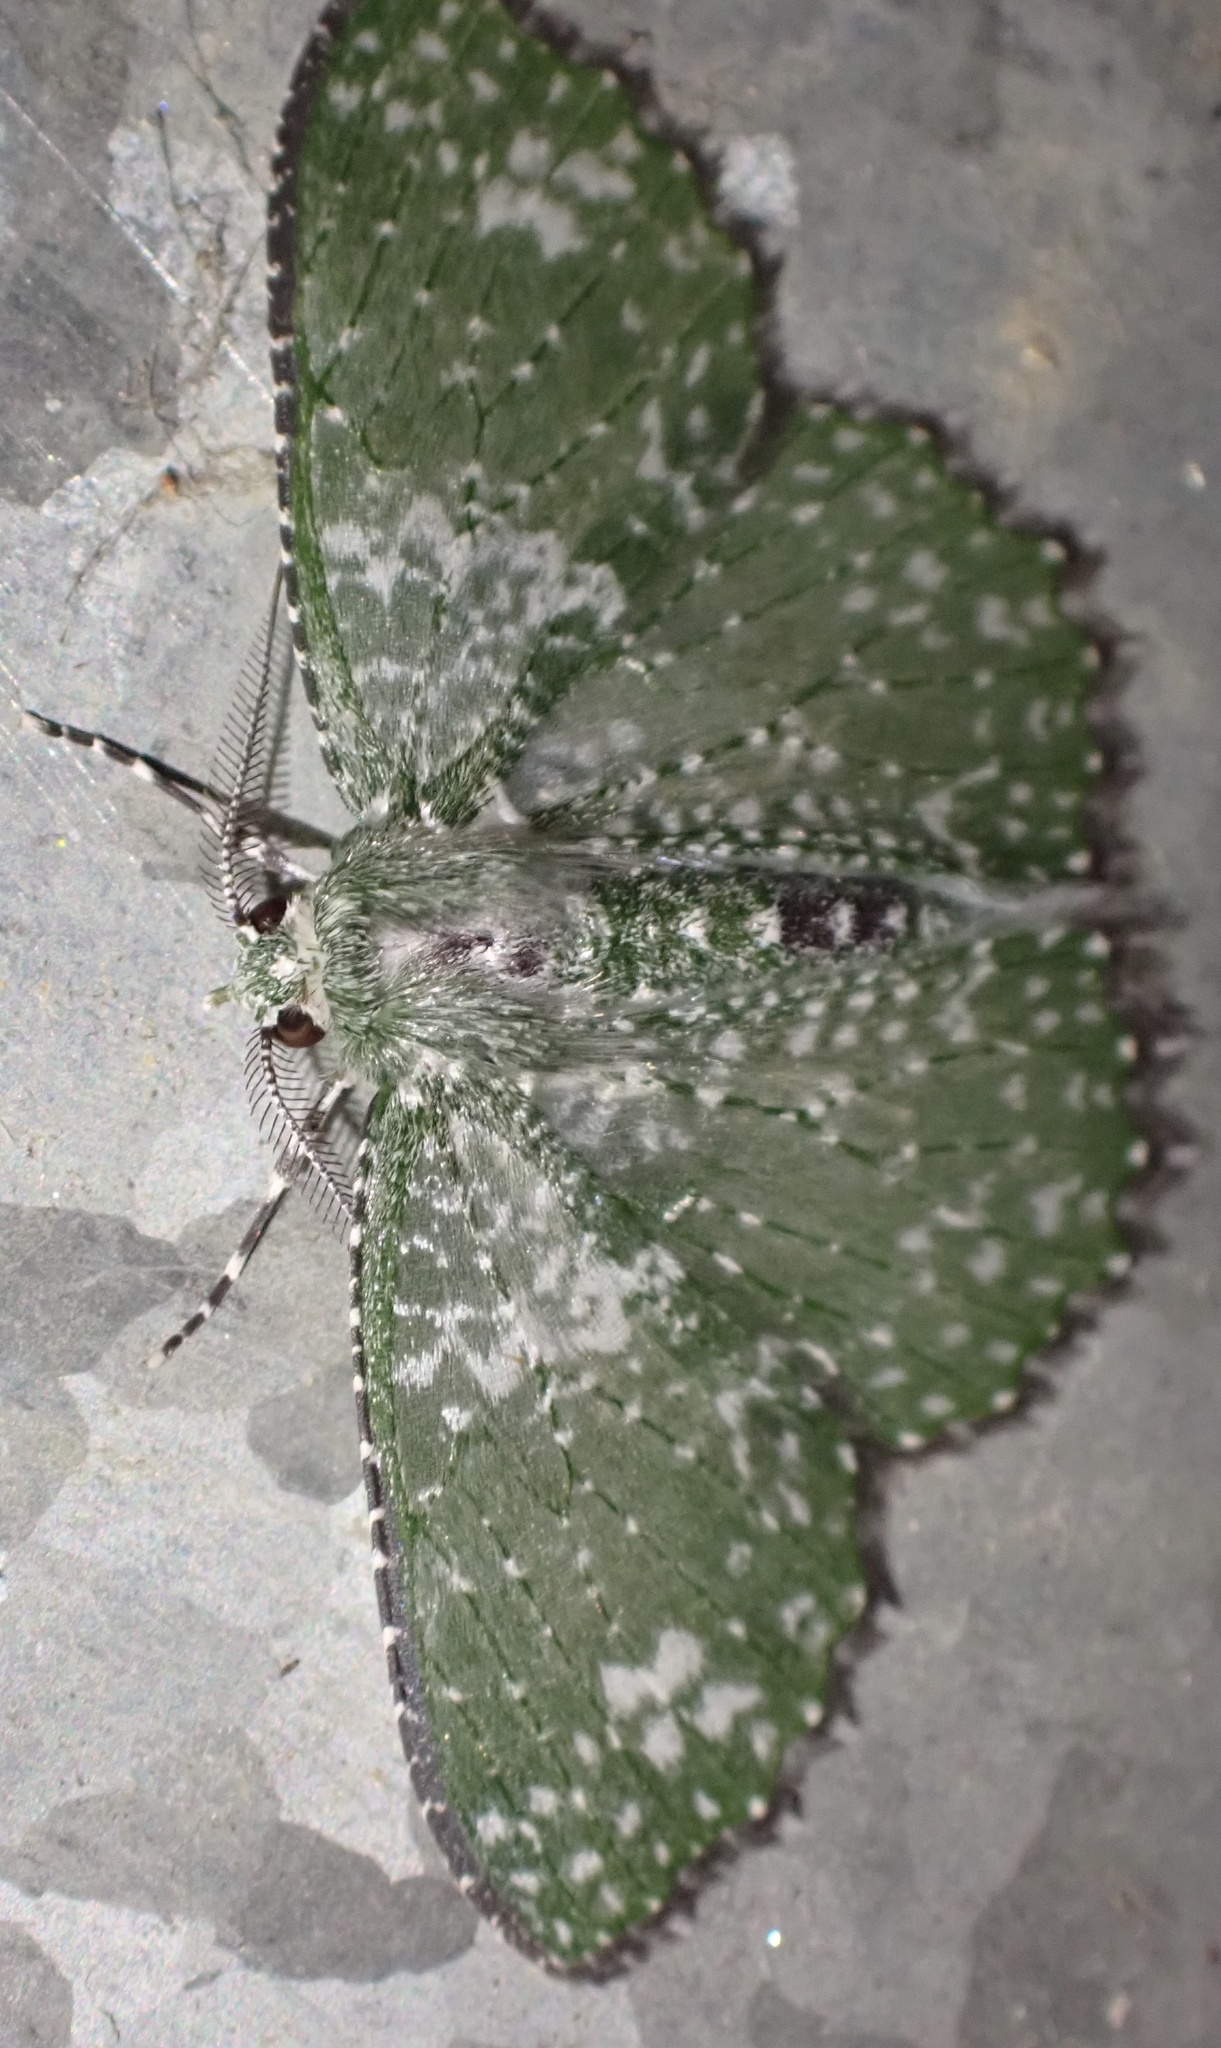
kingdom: Animalia
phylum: Arthropoda
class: Insecta
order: Lepidoptera
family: Geometridae
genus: Eucyclodes
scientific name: Eucyclodes iridescens
